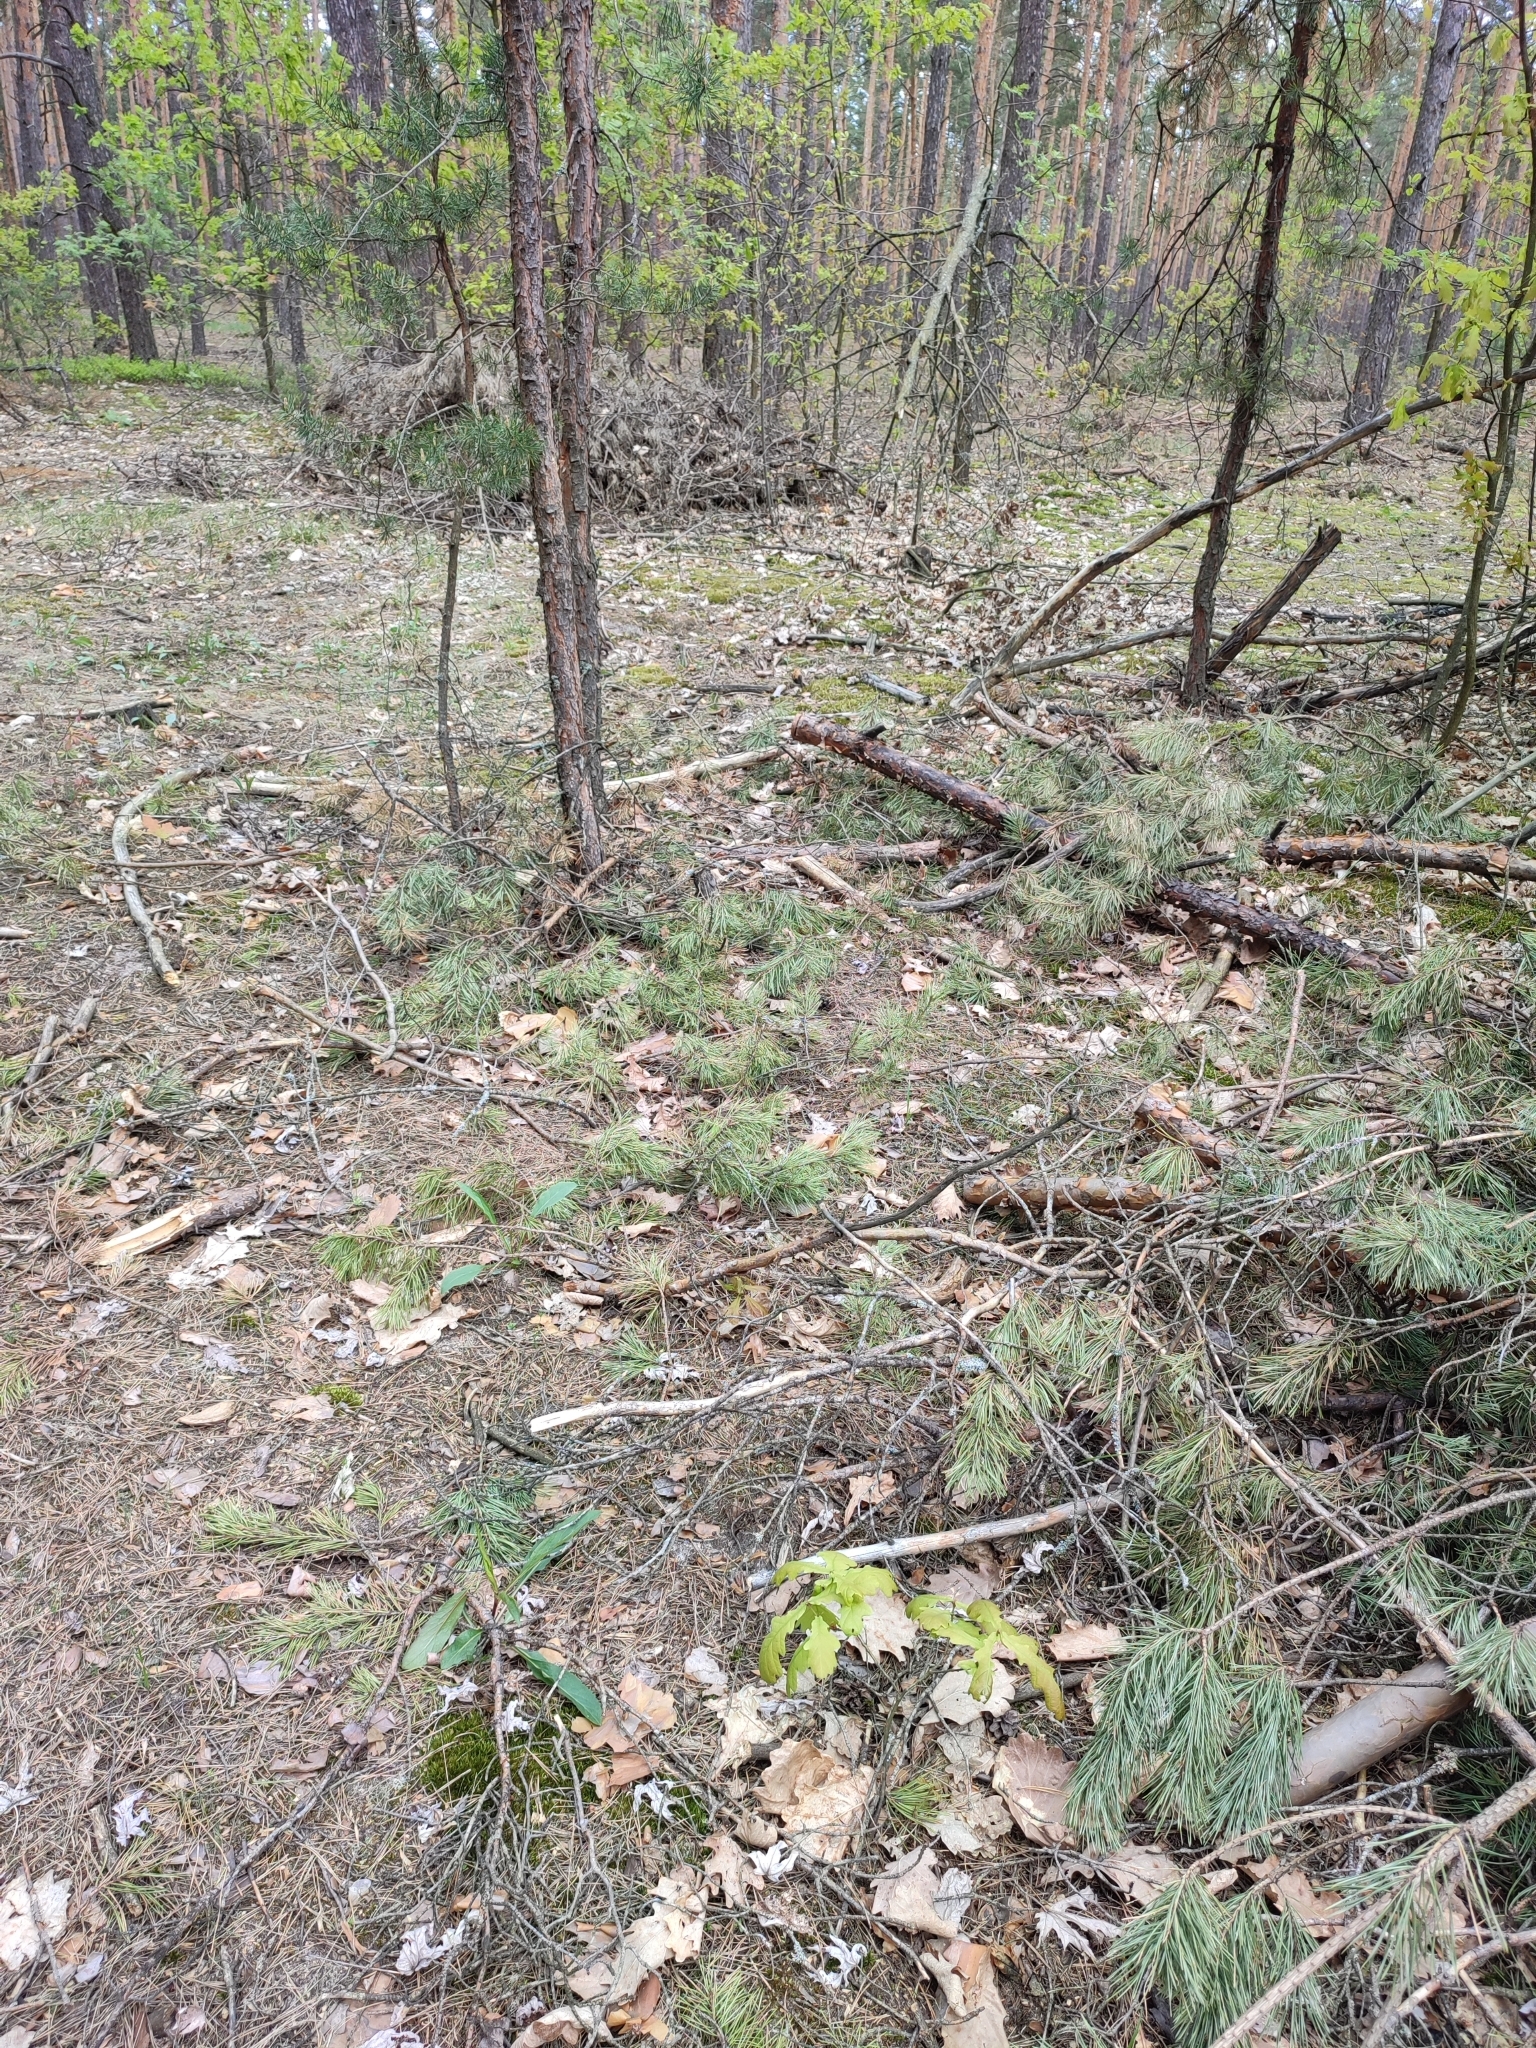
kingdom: Plantae
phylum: Tracheophyta
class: Magnoliopsida
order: Fagales
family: Fagaceae
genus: Quercus
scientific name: Quercus robur
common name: Pedunculate oak
